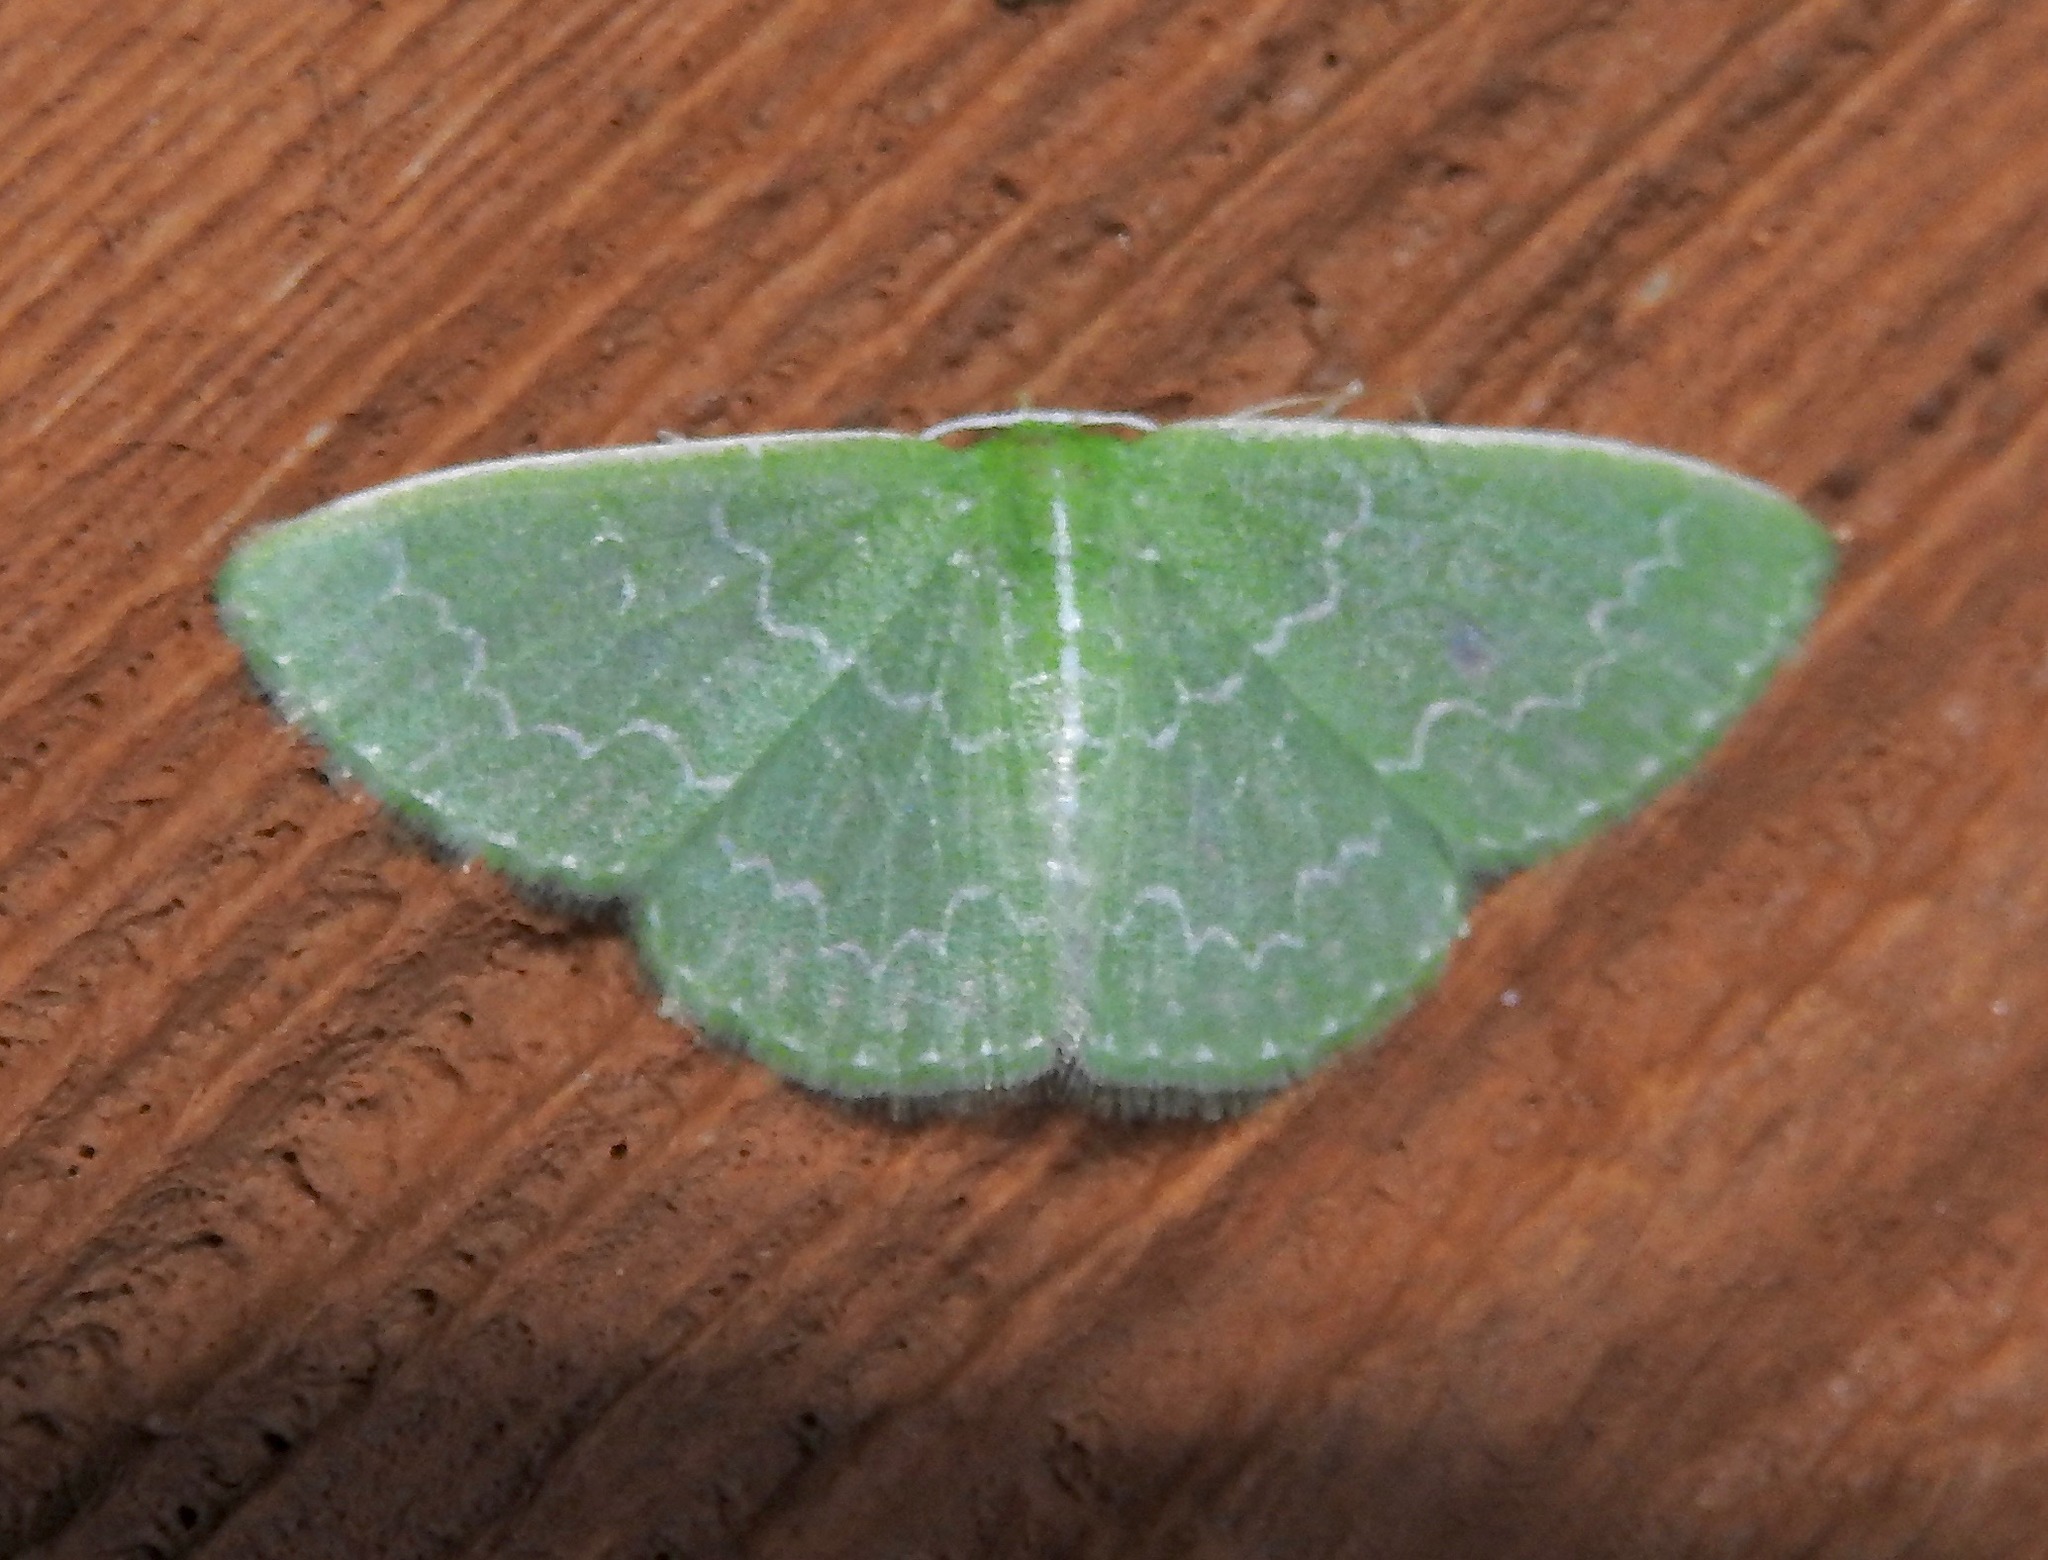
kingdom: Animalia
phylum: Arthropoda
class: Insecta
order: Lepidoptera
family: Geometridae
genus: Synchlora
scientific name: Synchlora frondaria
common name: Southern emerald
